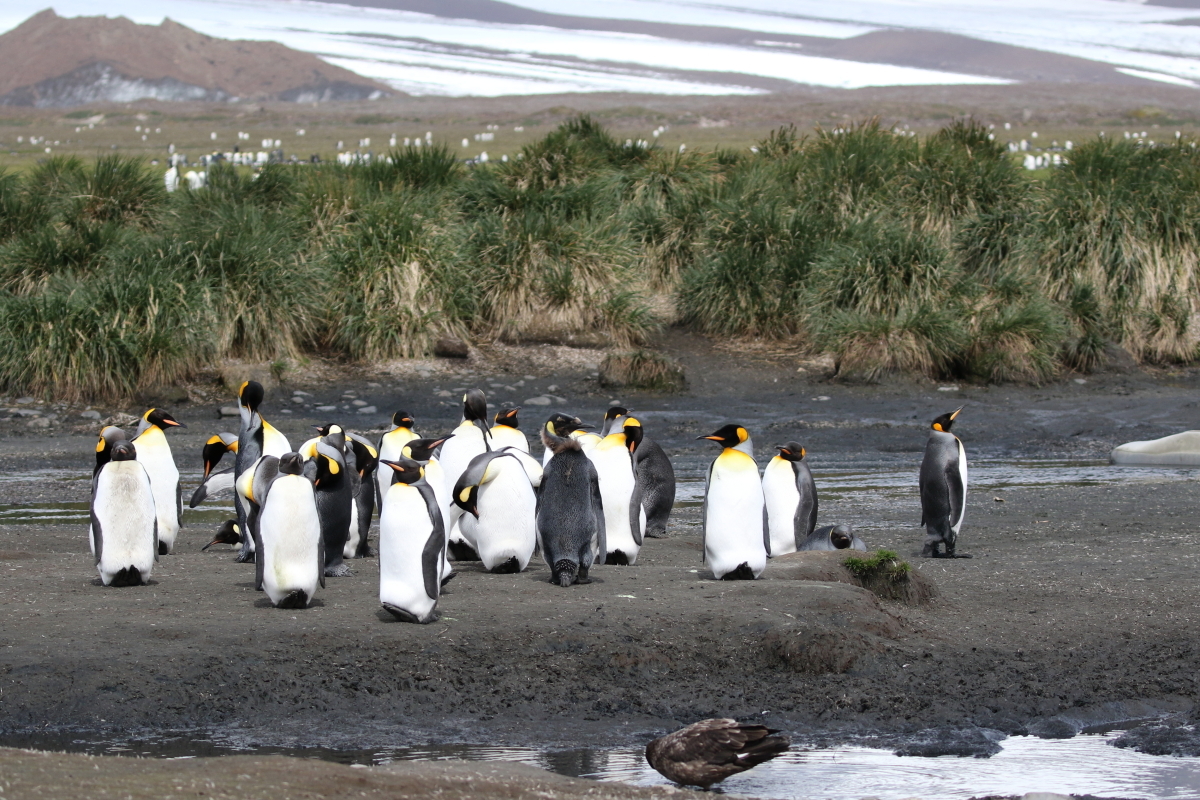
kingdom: Animalia
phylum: Chordata
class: Aves
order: Sphenisciformes
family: Spheniscidae
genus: Aptenodytes
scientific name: Aptenodytes patagonicus
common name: King penguin
